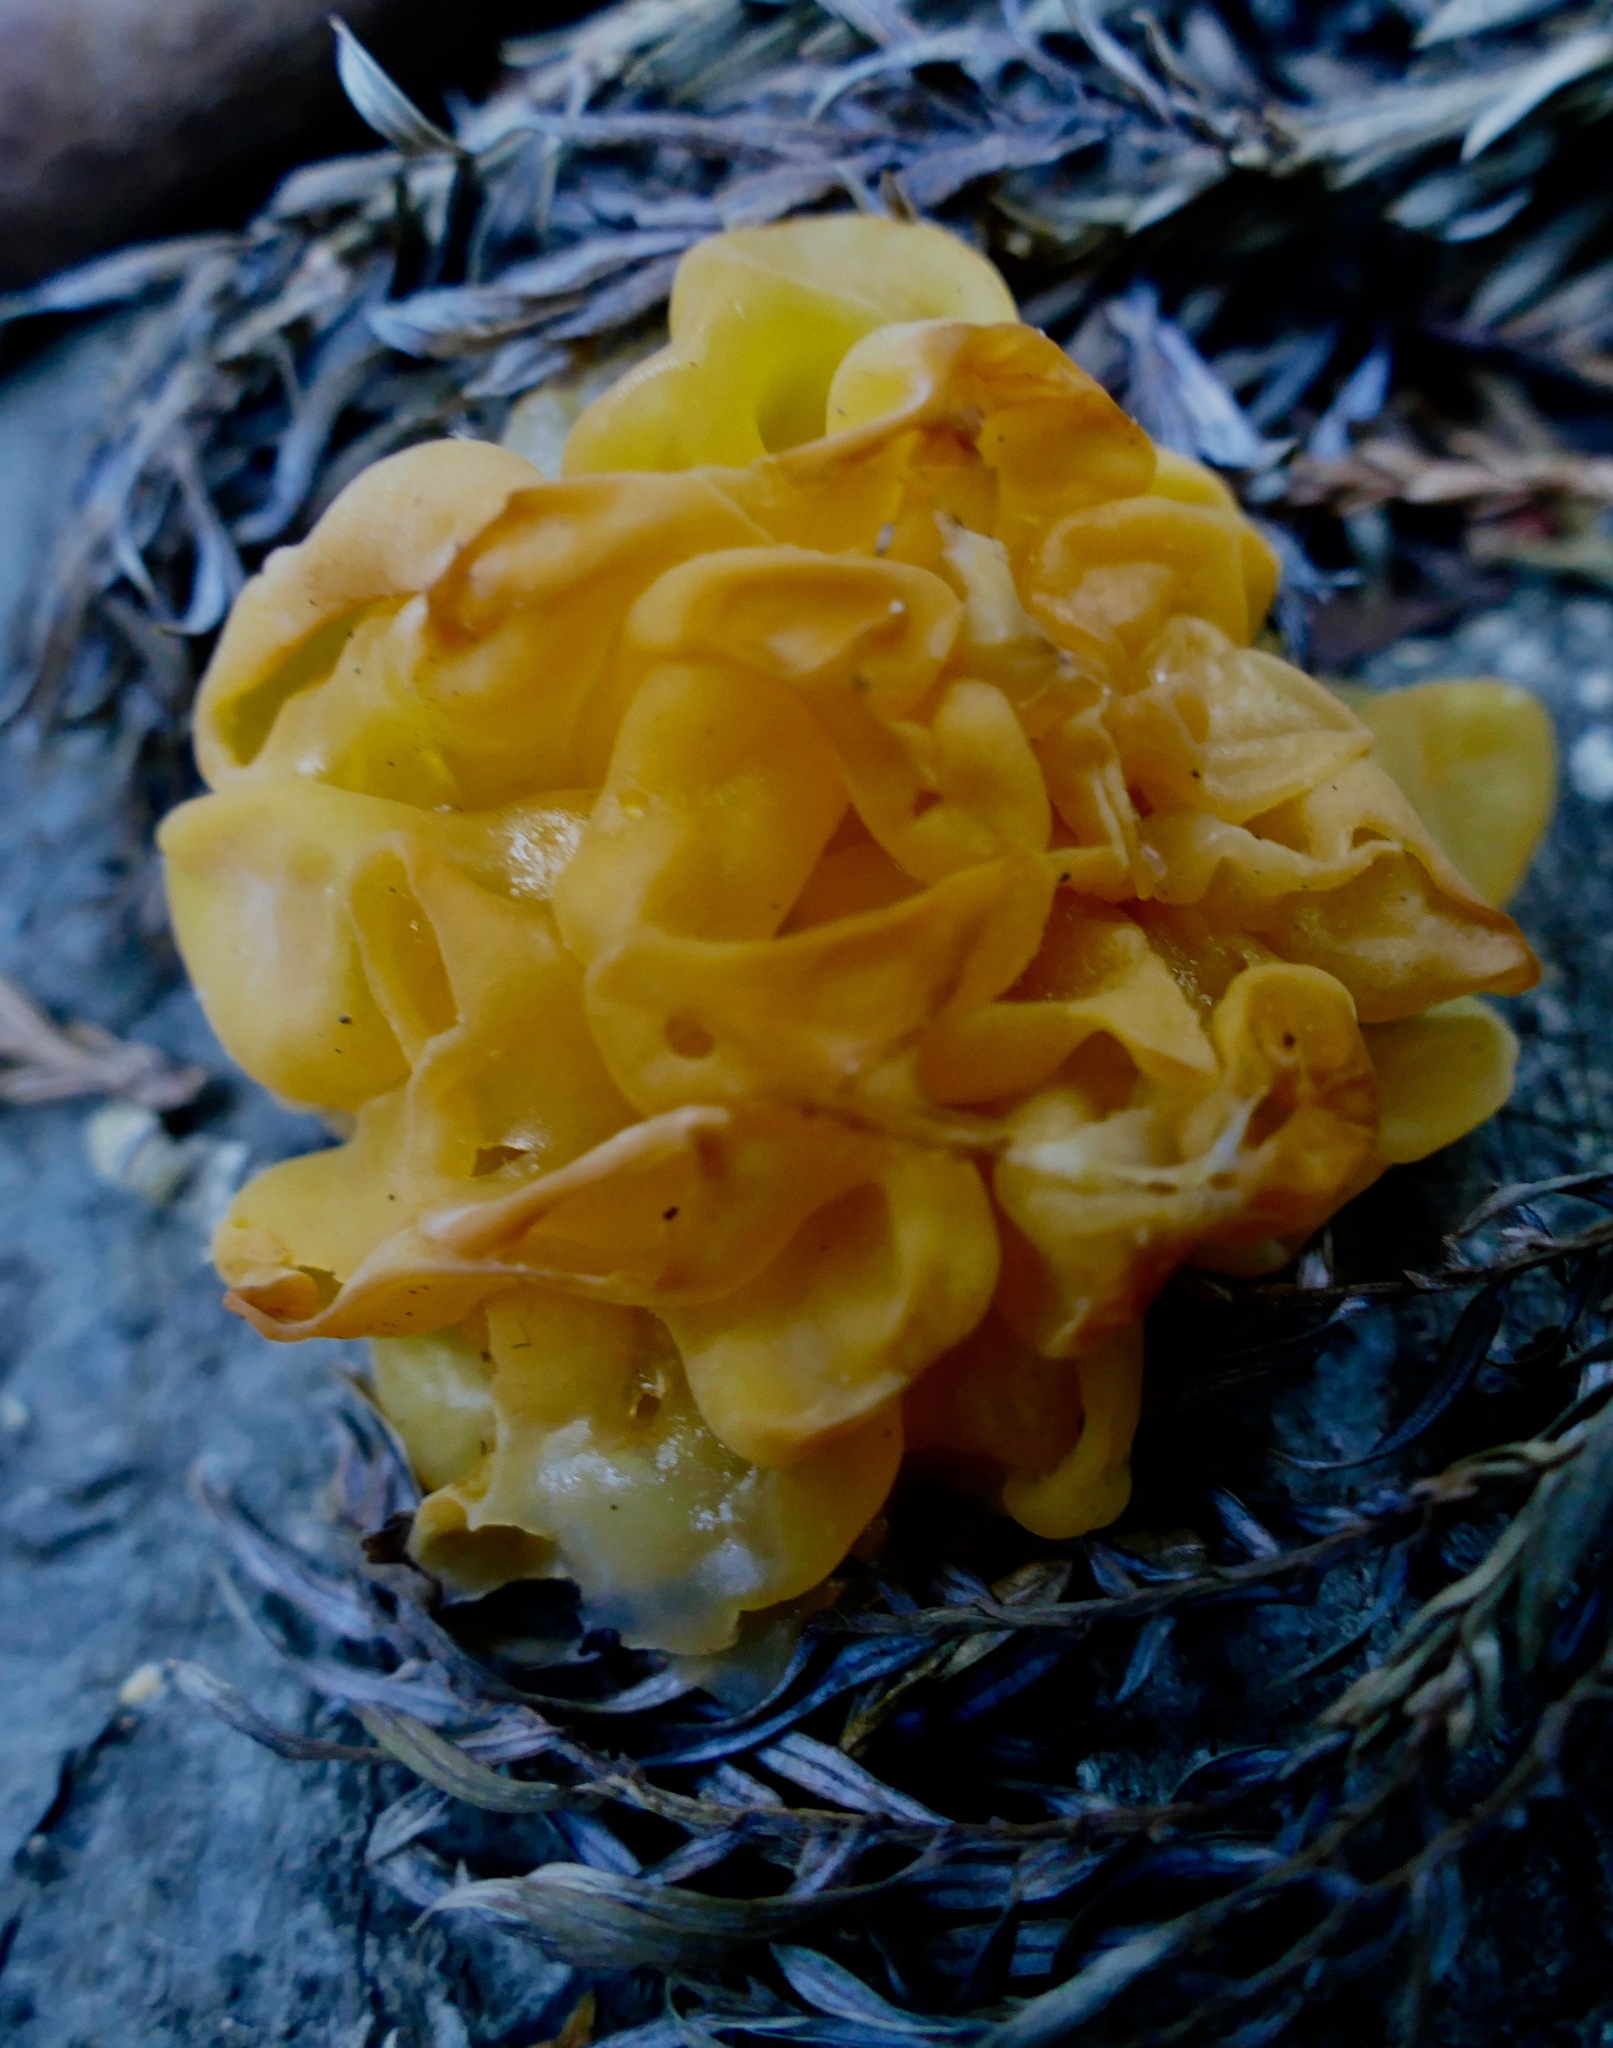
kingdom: Fungi
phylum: Basidiomycota
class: Tremellomycetes
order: Tremellales
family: Naemateliaceae
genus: Naematelia
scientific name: Naematelia aurantia
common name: Golden ear
